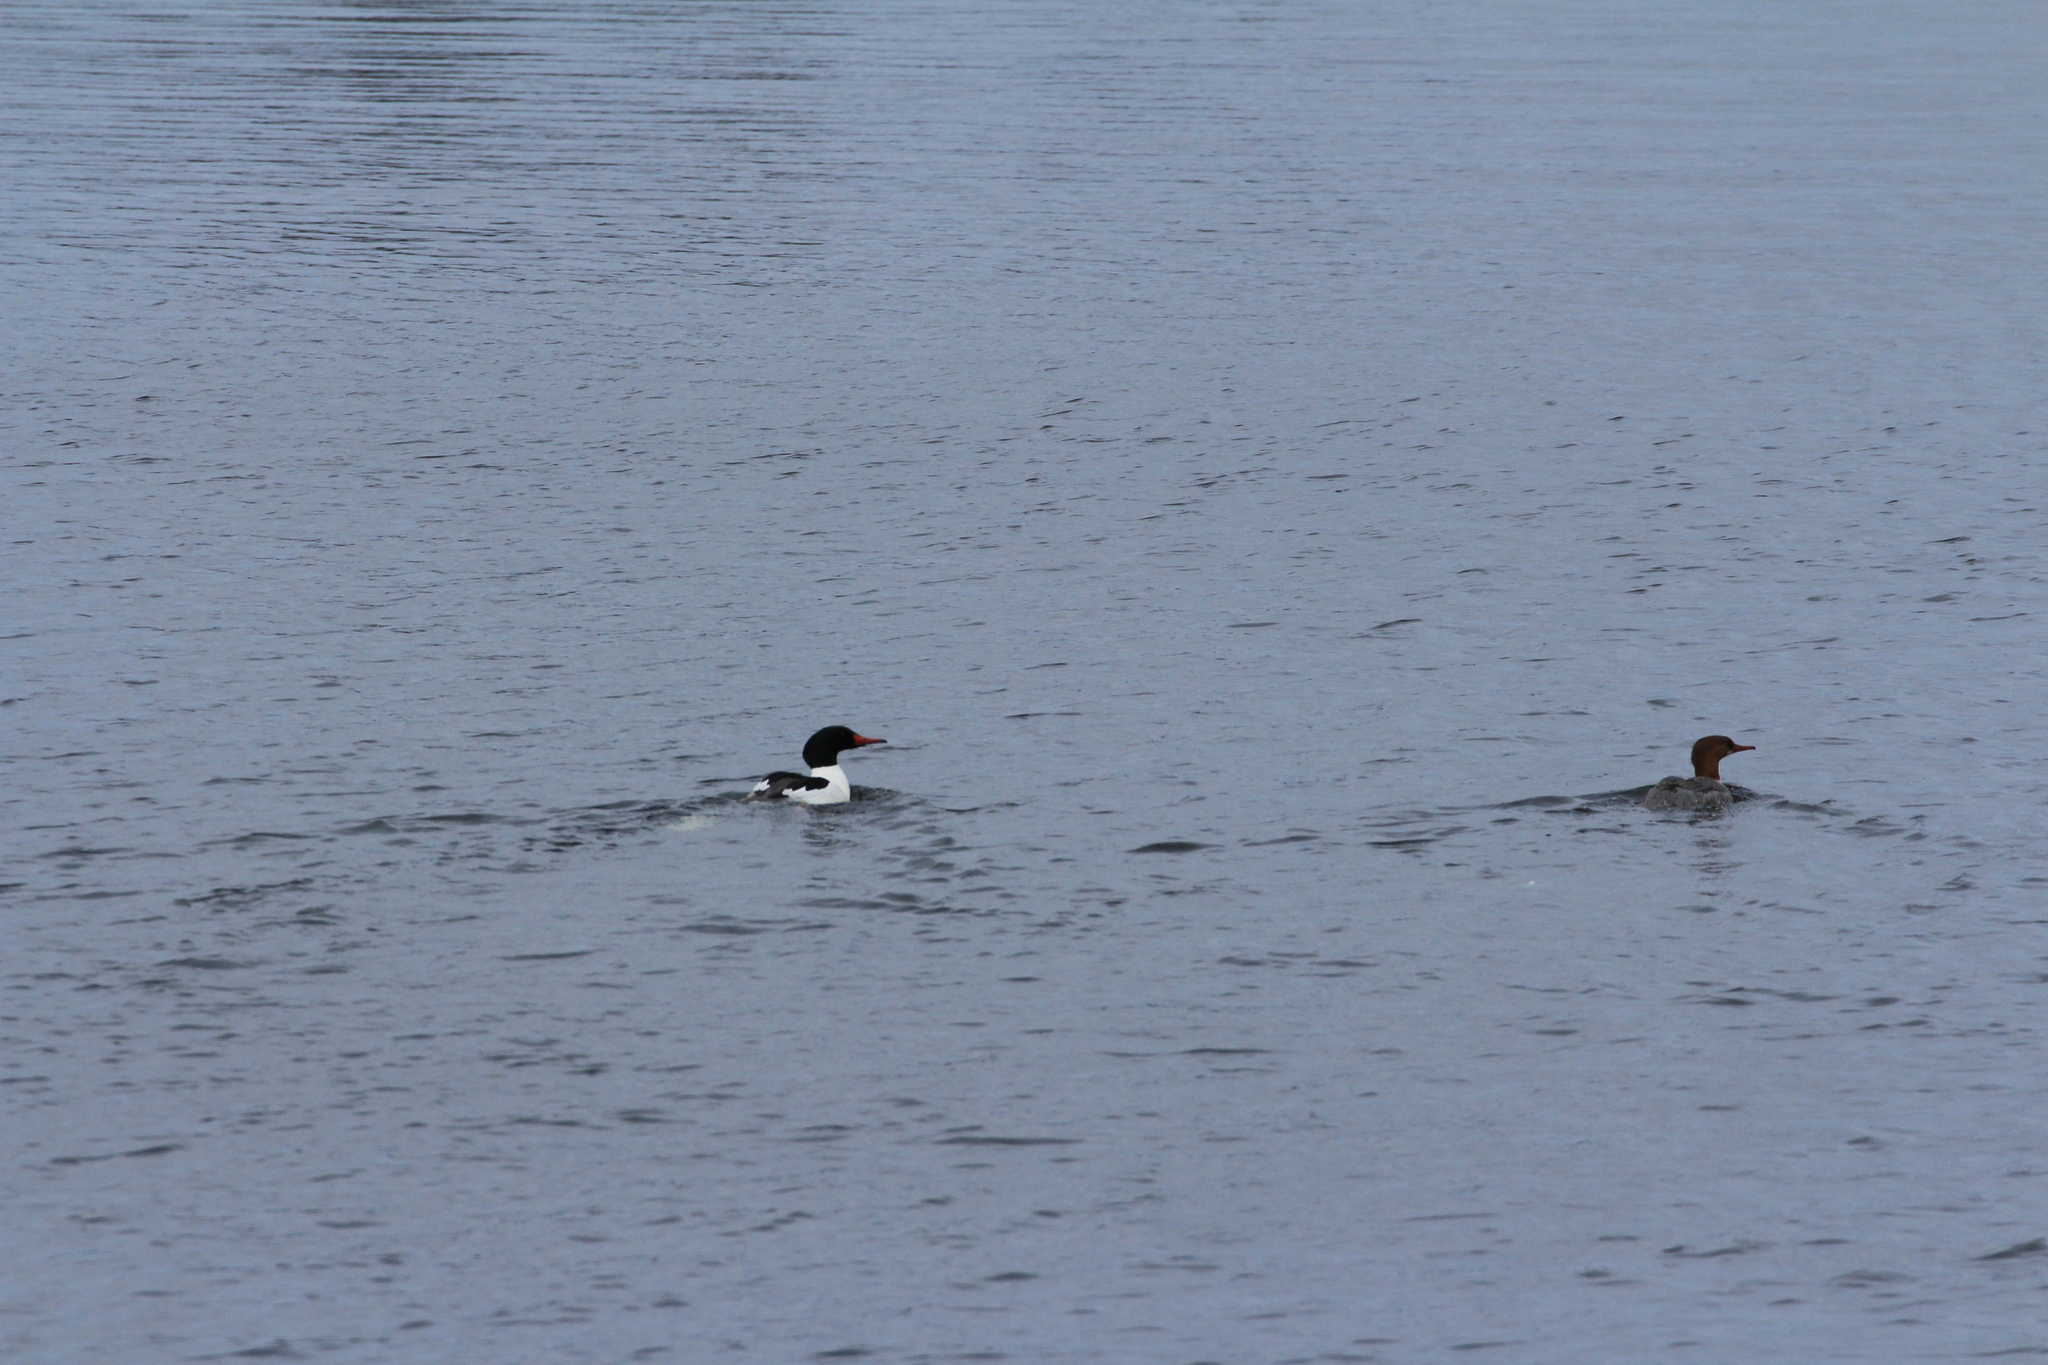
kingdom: Animalia
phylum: Chordata
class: Aves
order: Anseriformes
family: Anatidae
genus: Mergus
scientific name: Mergus merganser
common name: Common merganser
